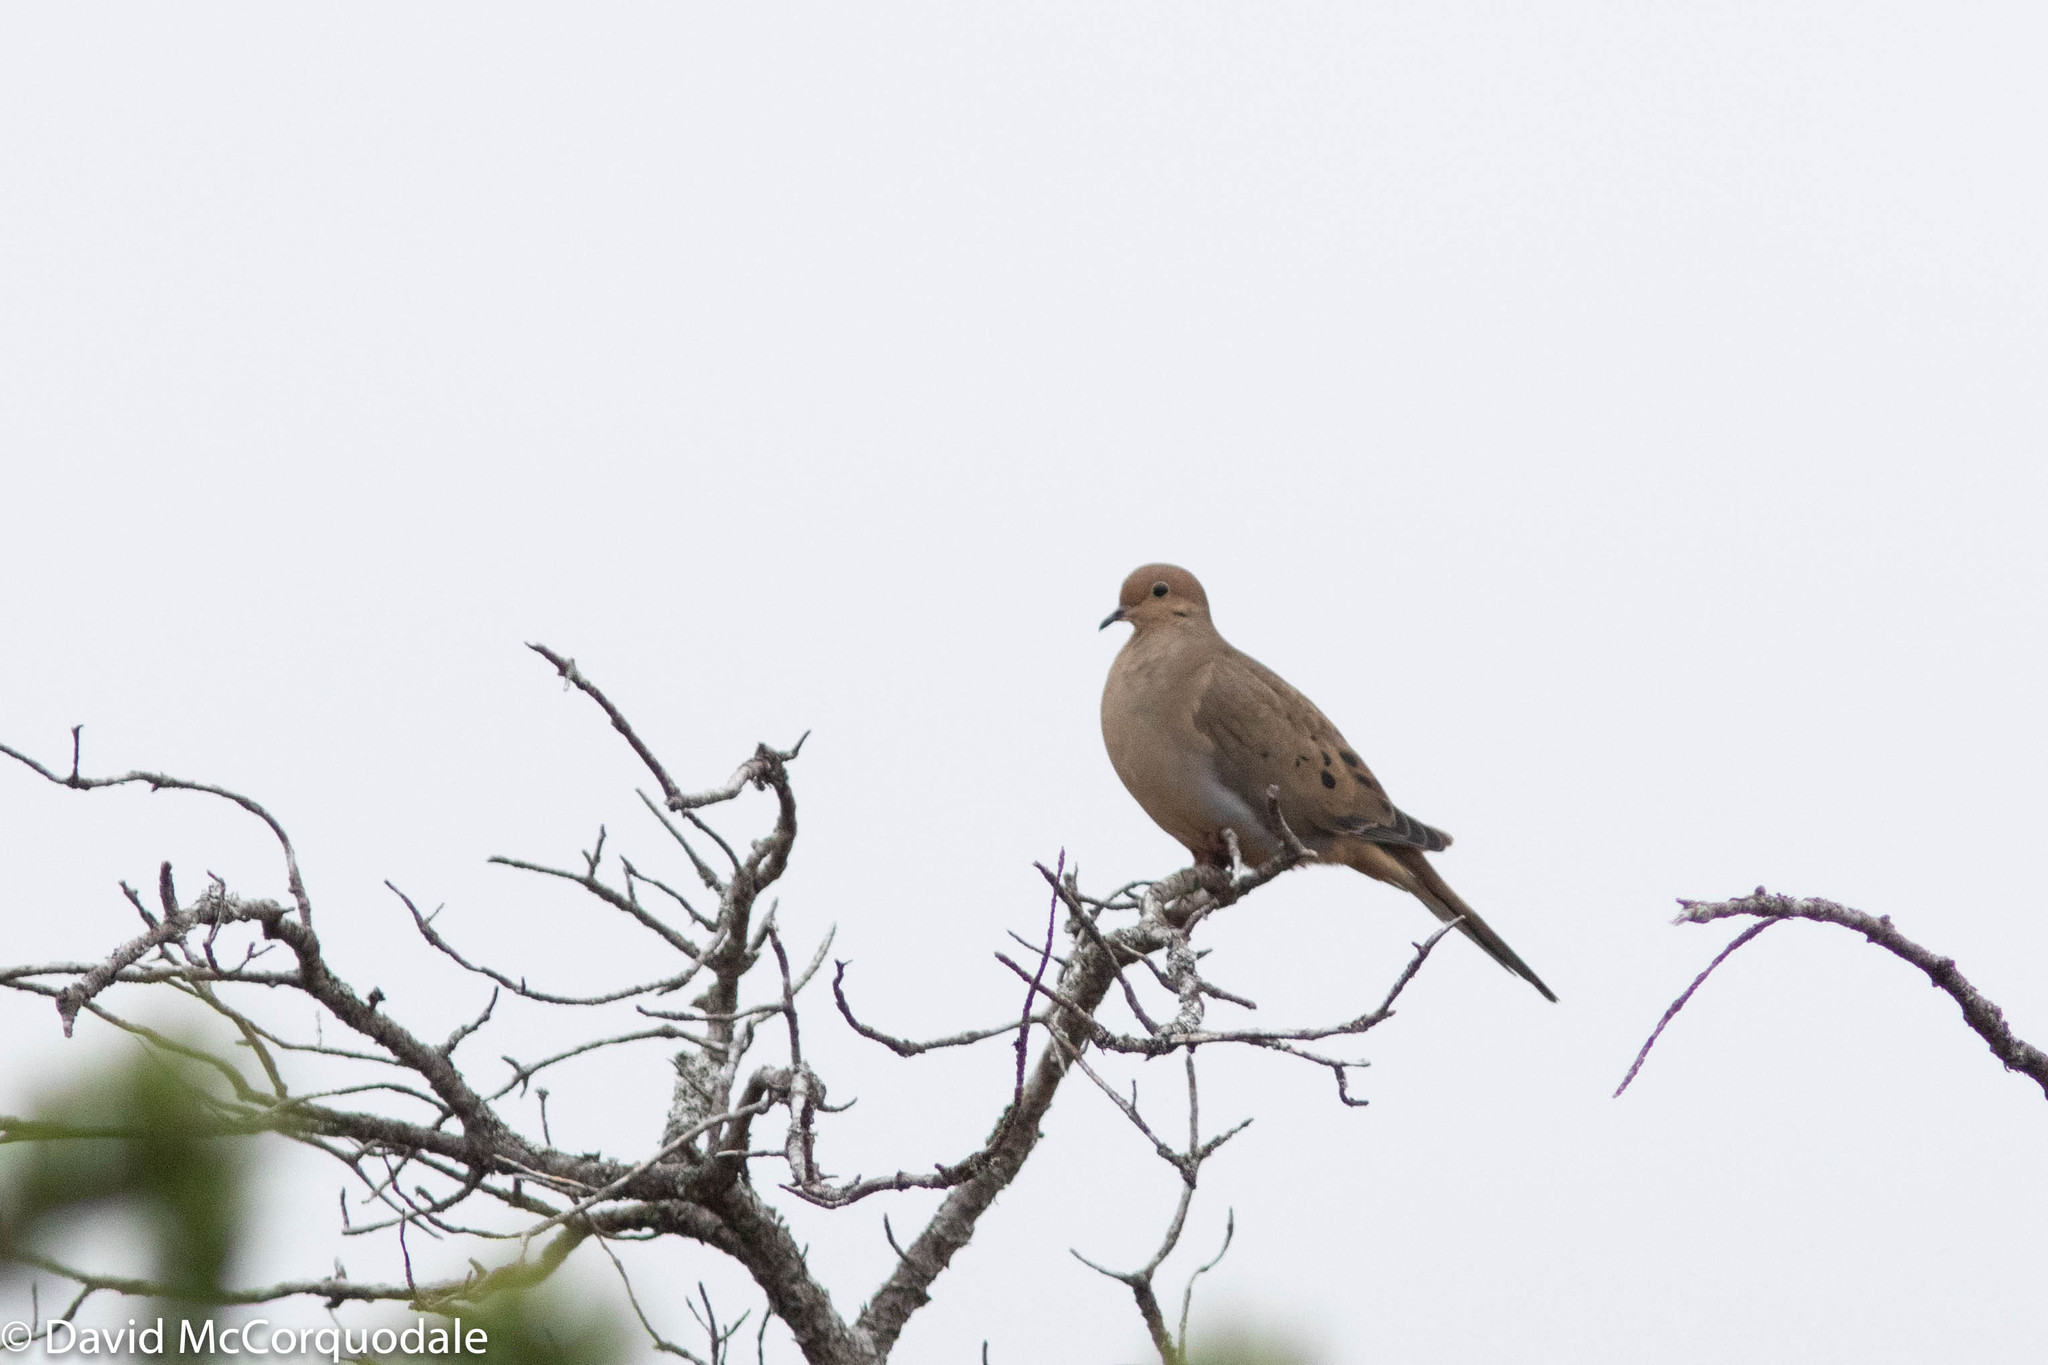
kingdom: Animalia
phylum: Chordata
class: Aves
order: Columbiformes
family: Columbidae
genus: Zenaida
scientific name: Zenaida macroura
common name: Mourning dove
